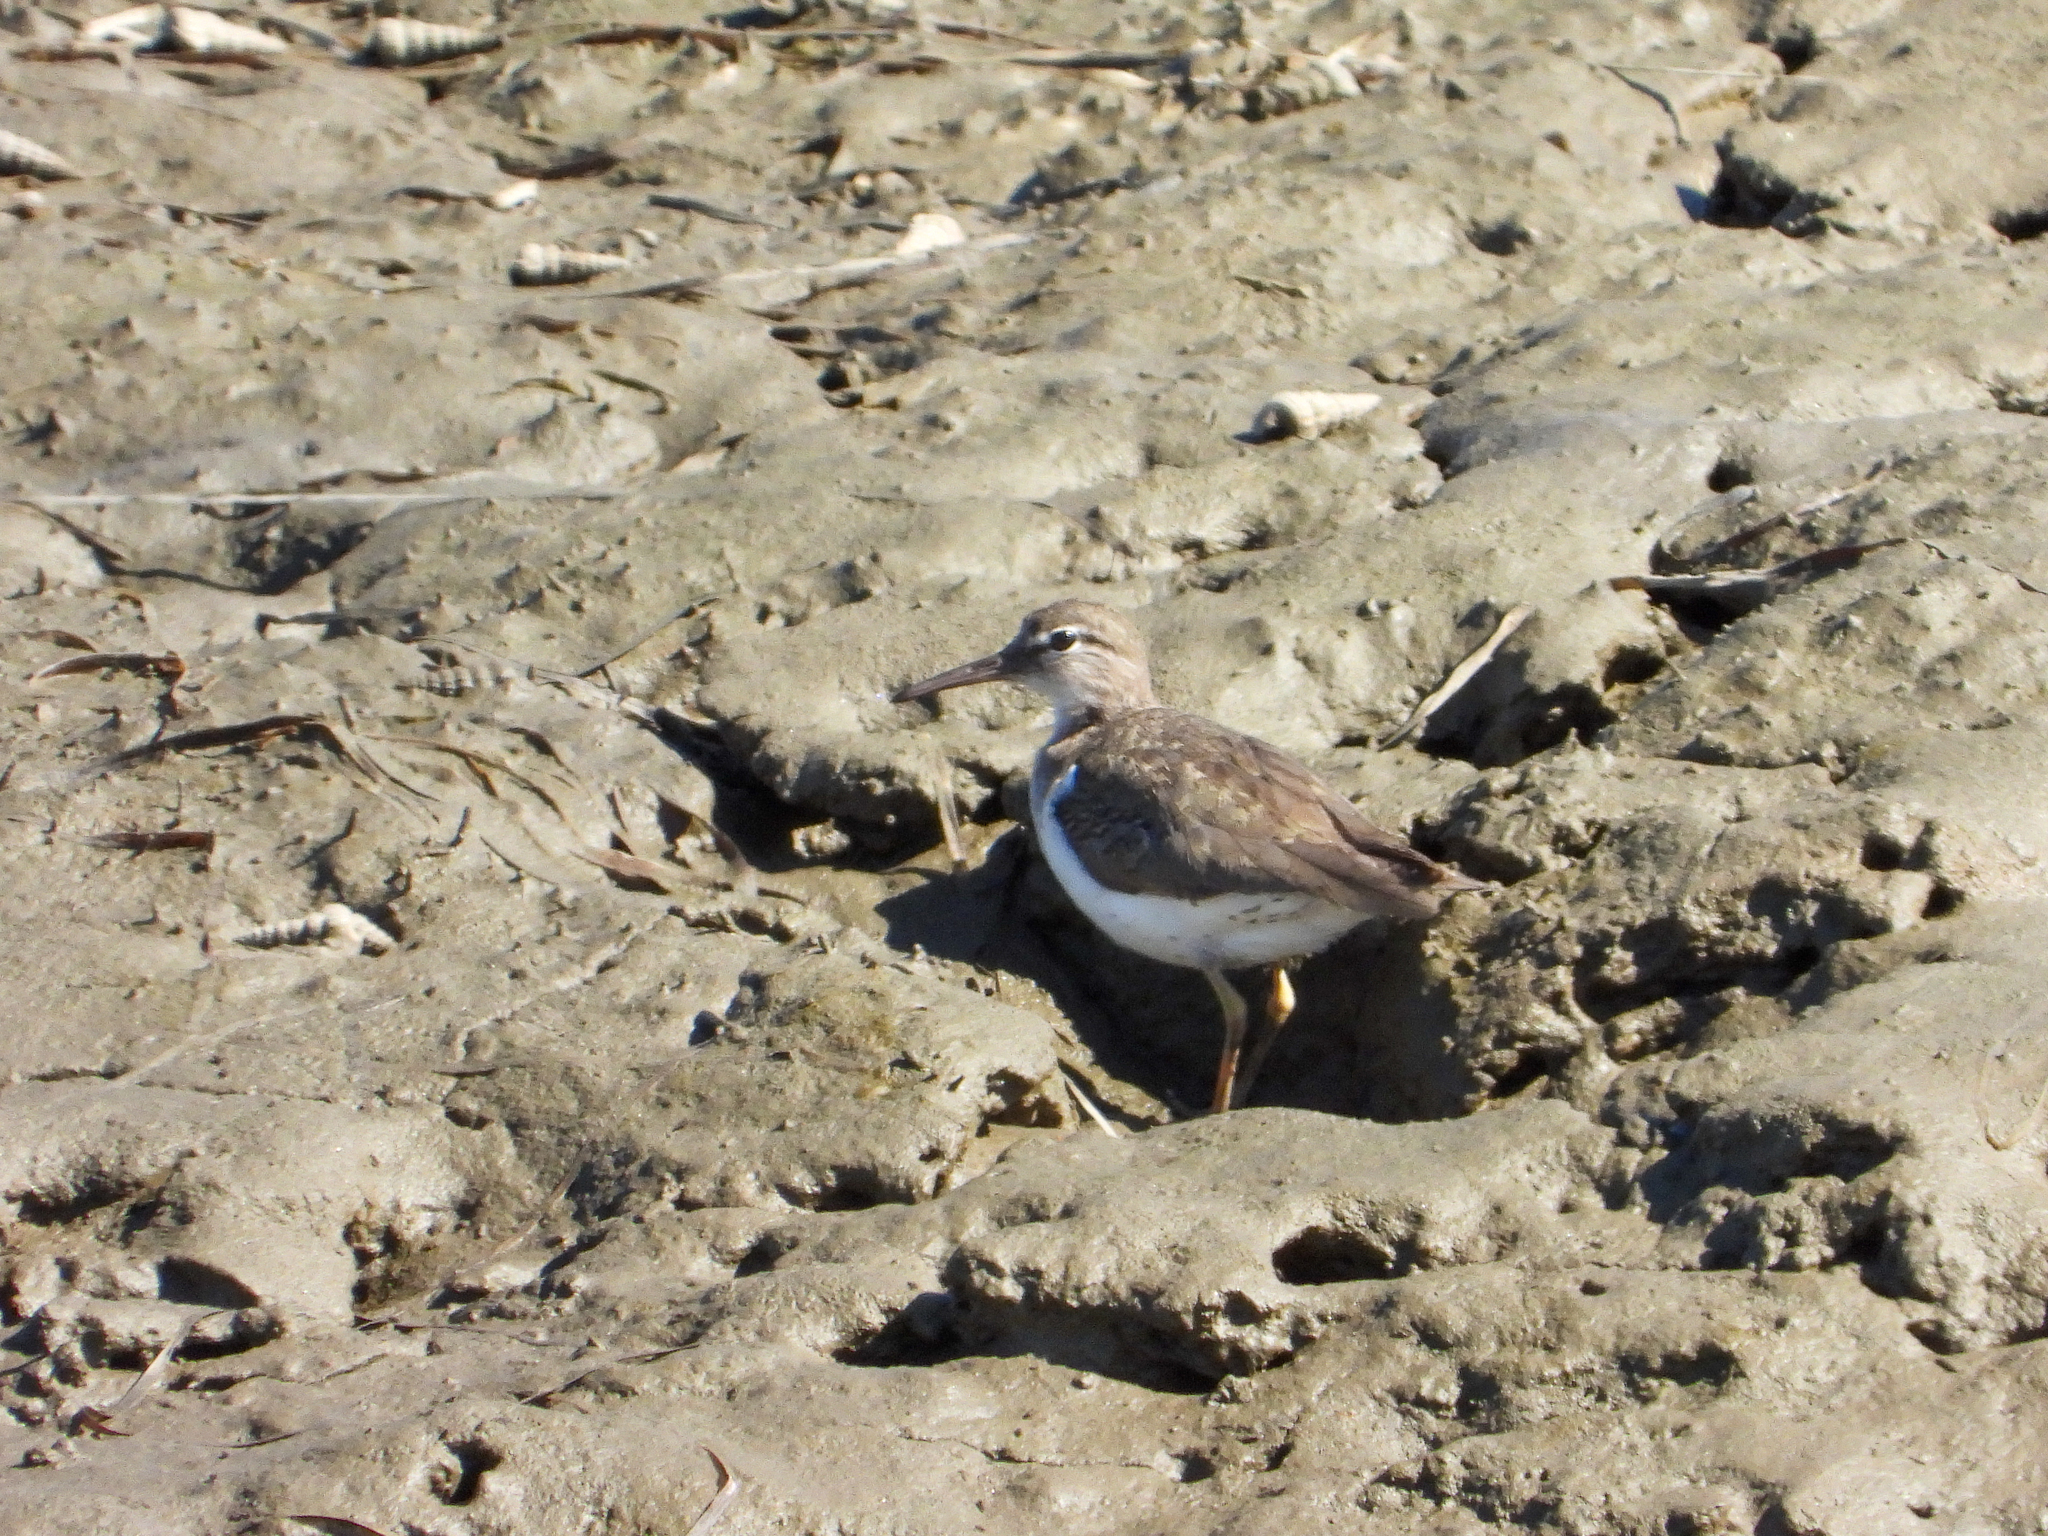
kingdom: Animalia
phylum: Chordata
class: Aves
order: Charadriiformes
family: Scolopacidae
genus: Actitis
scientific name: Actitis macularius
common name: Spotted sandpiper
